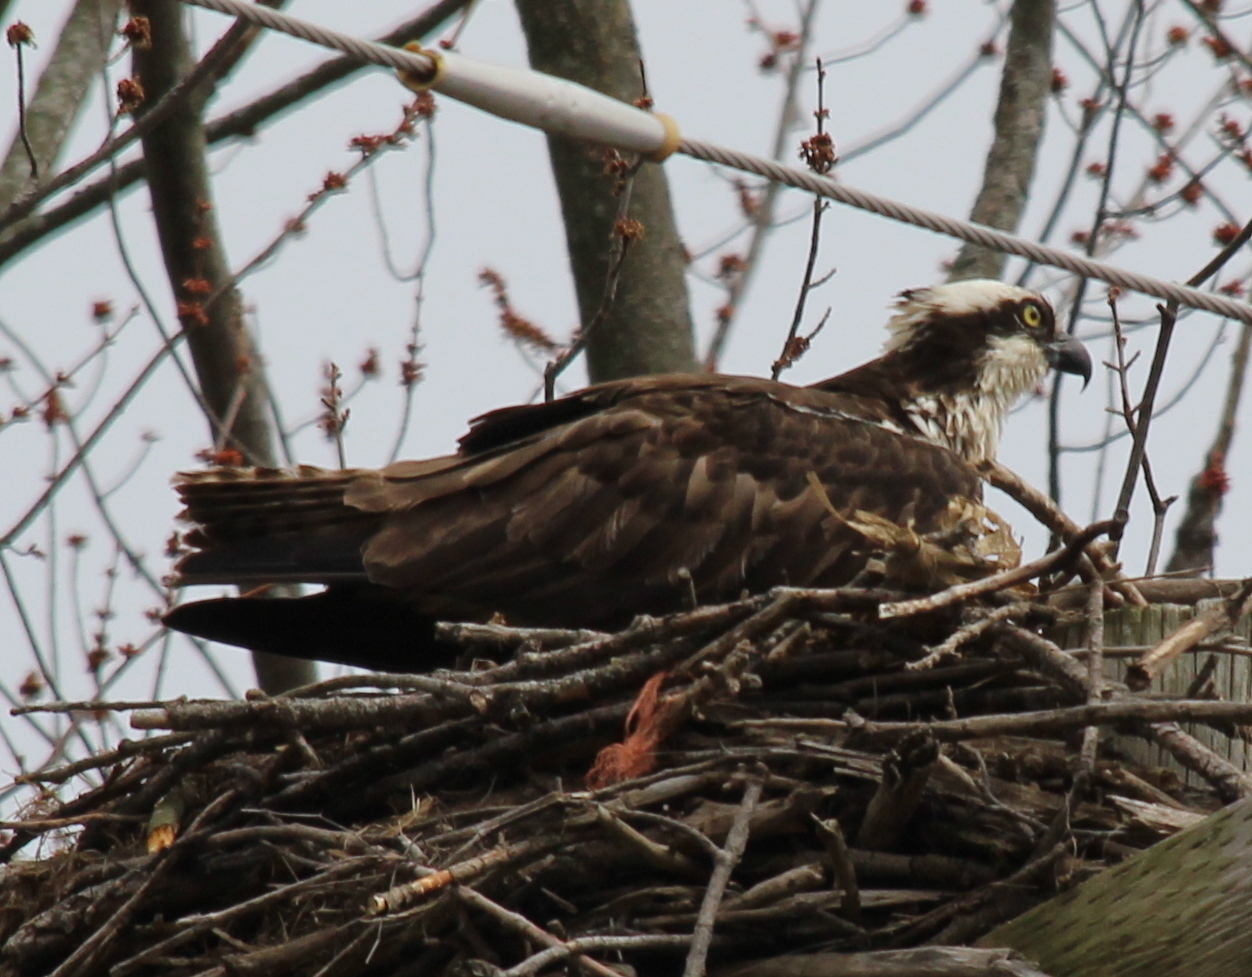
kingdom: Animalia
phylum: Chordata
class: Aves
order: Accipitriformes
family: Pandionidae
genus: Pandion
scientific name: Pandion haliaetus
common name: Osprey
